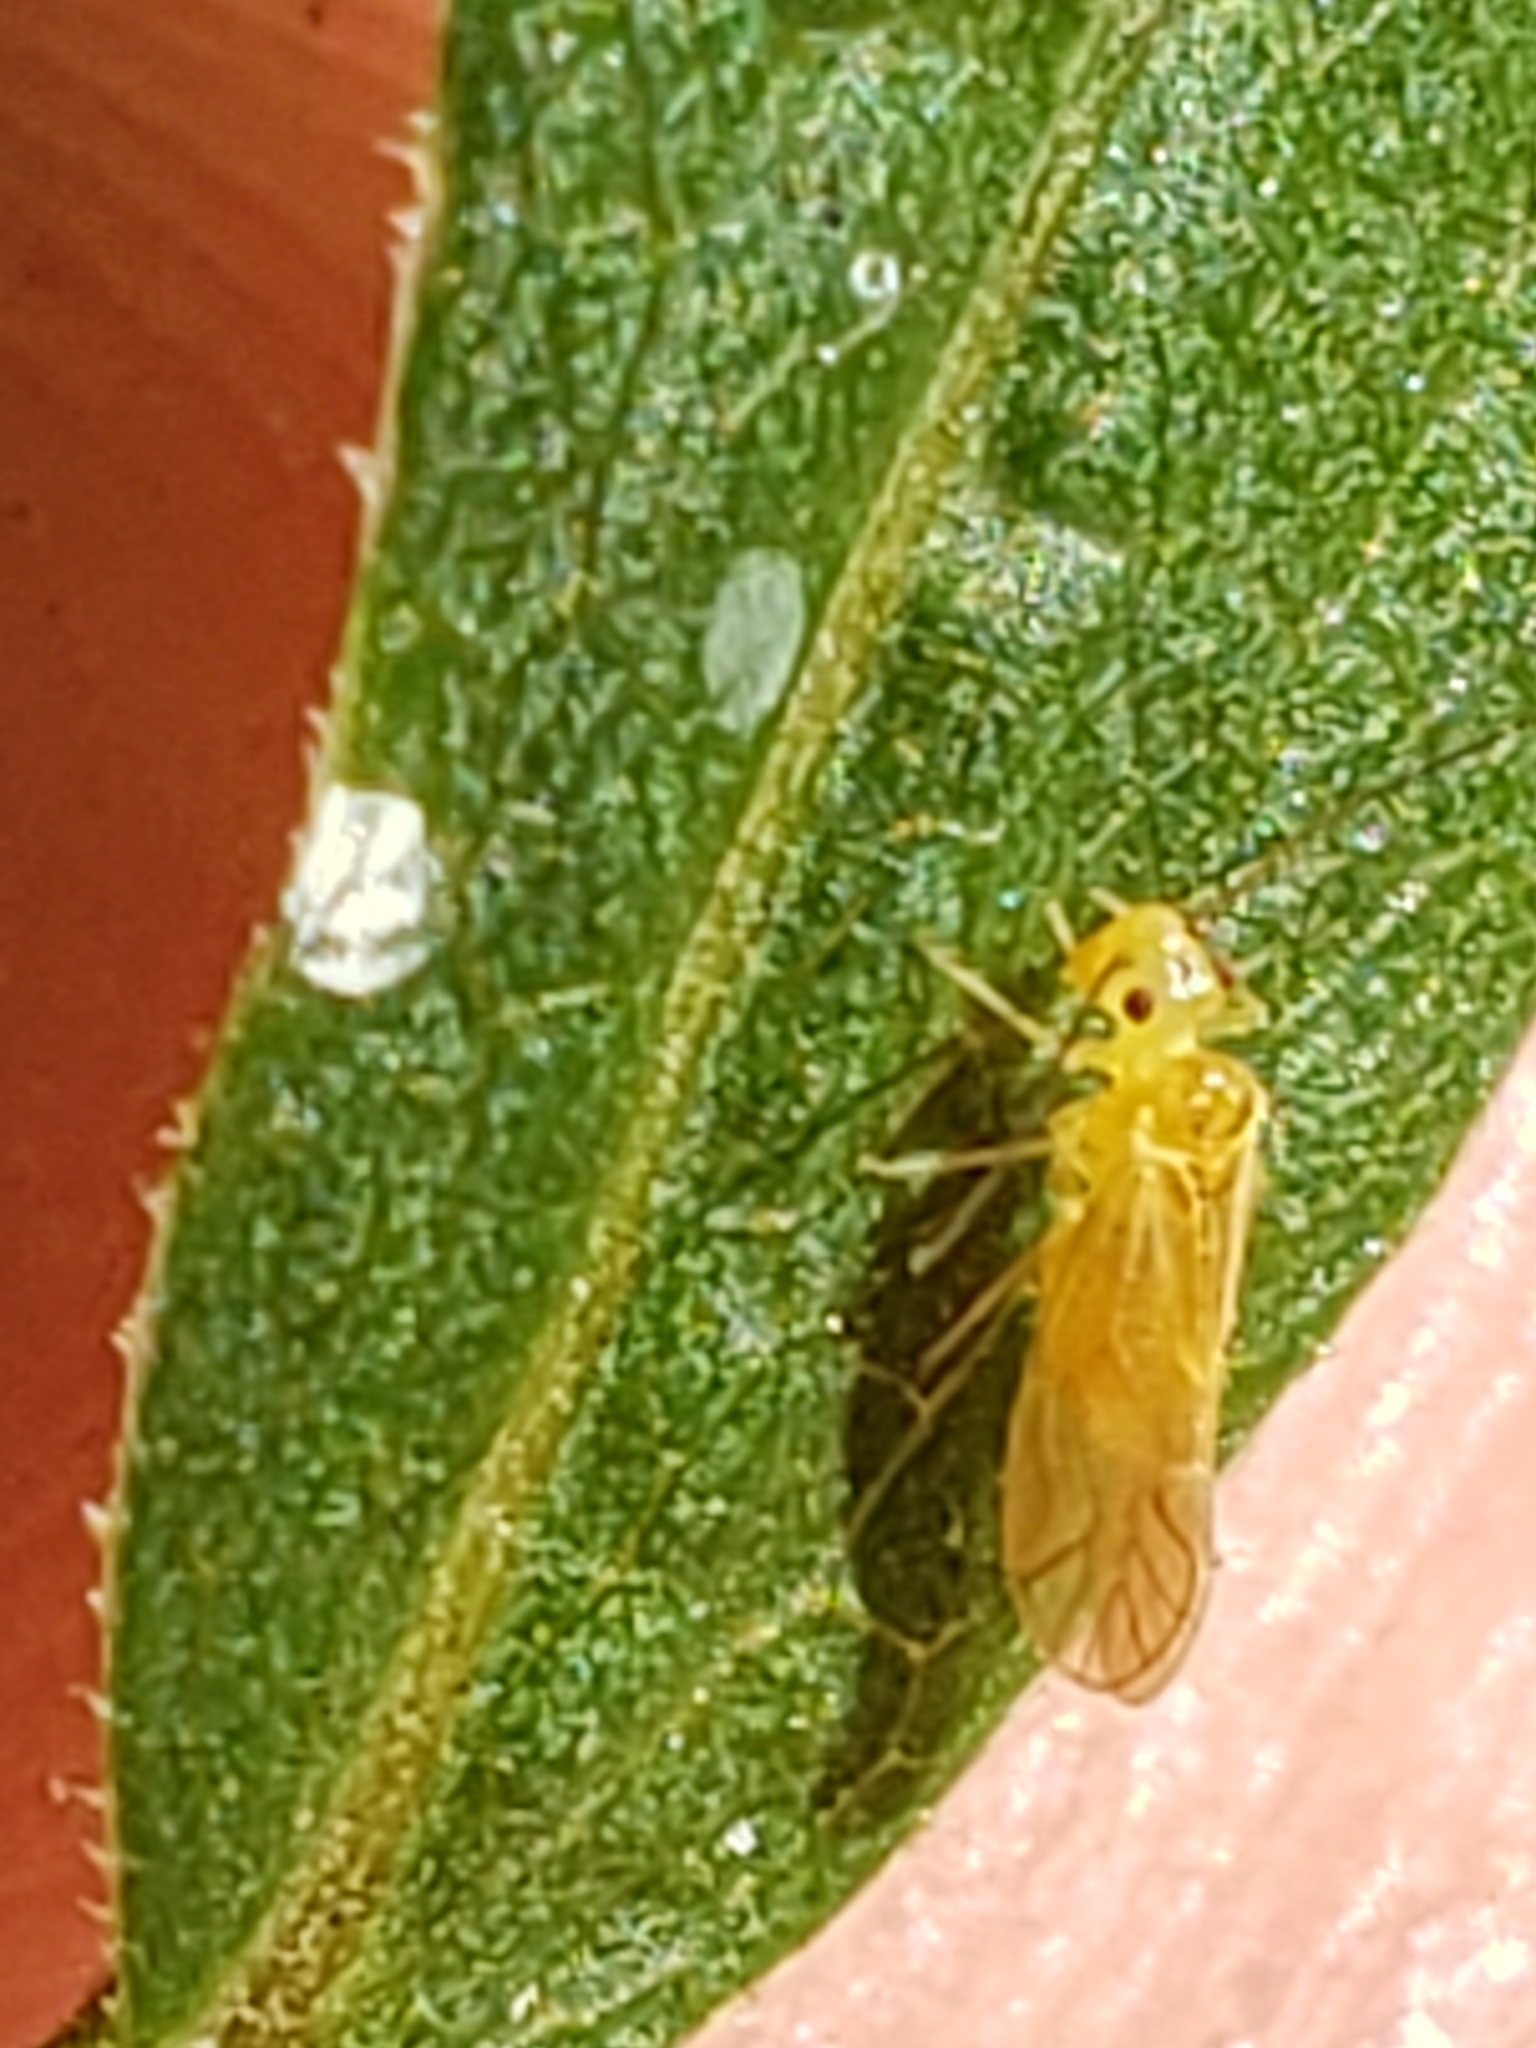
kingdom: Animalia
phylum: Arthropoda
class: Insecta
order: Psocodea
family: Caeciliusidae
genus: Valenzuela
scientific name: Valenzuela flavidus
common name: Yellow barklouse
